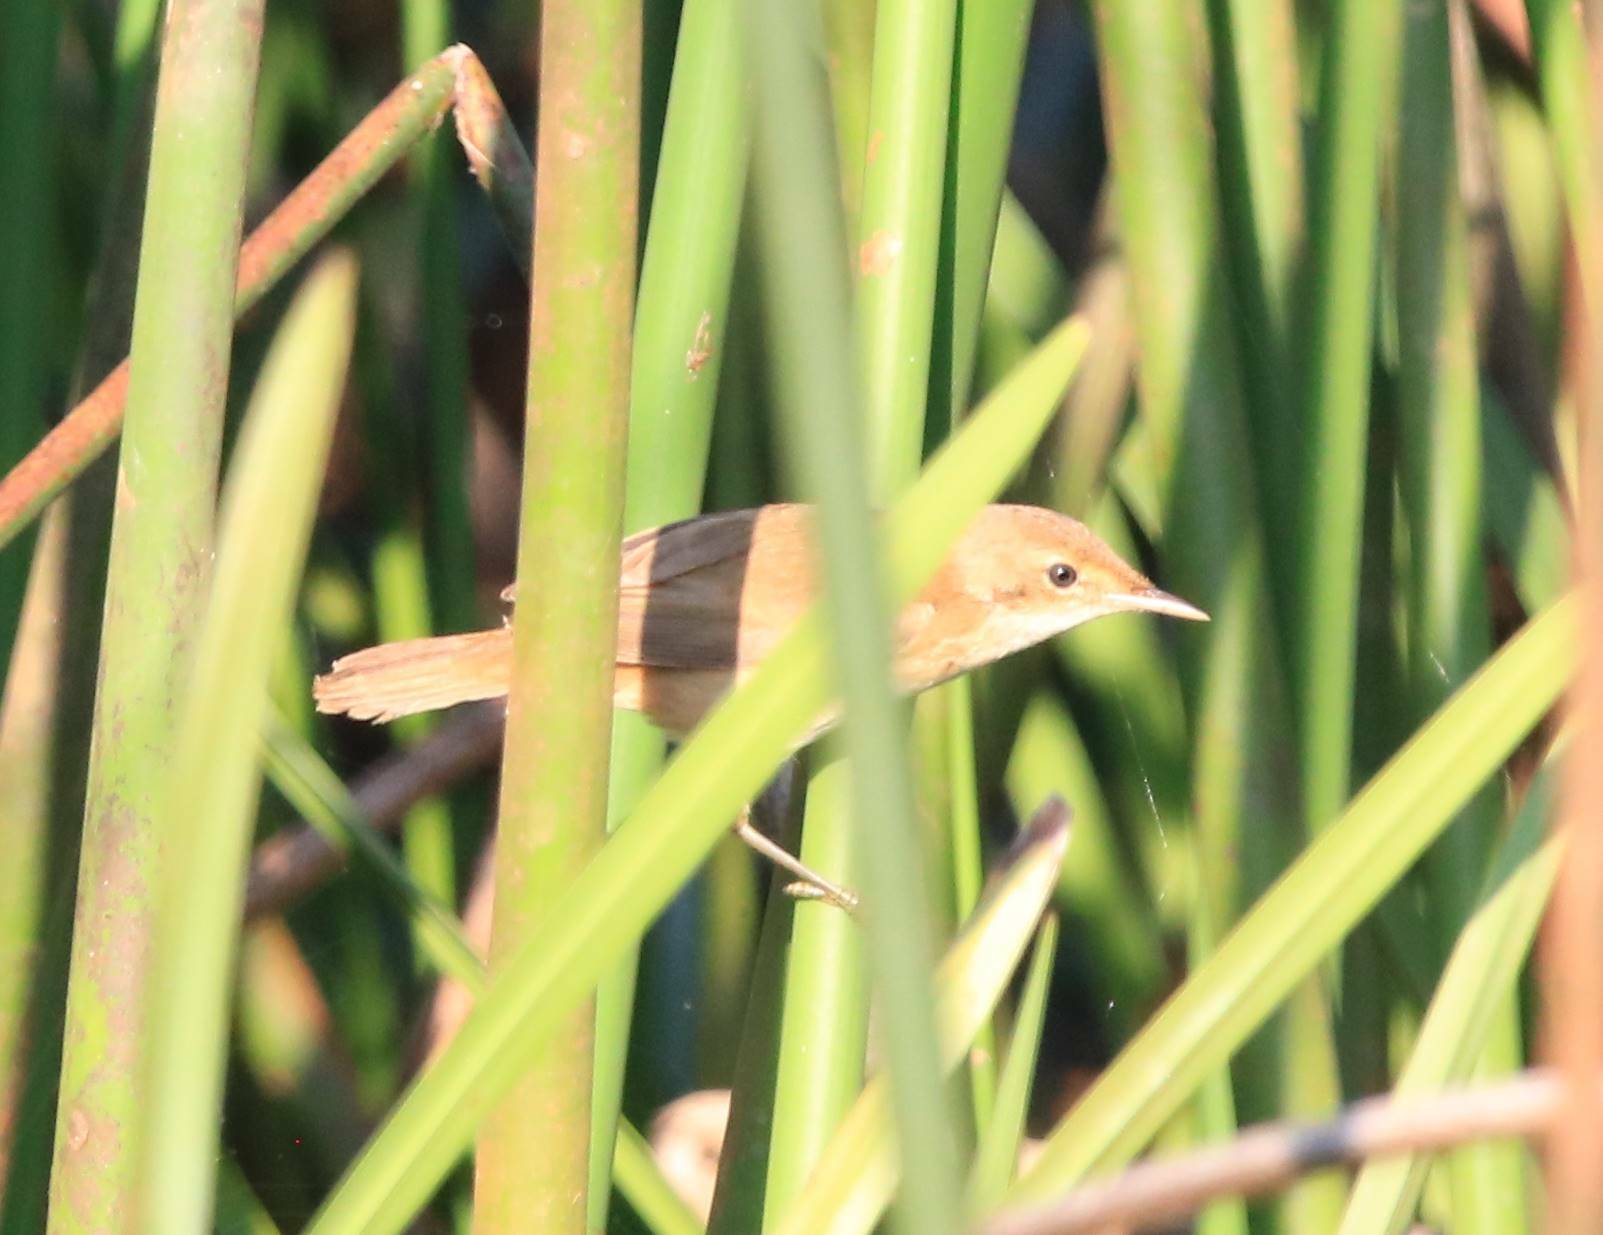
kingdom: Animalia
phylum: Chordata
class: Aves
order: Passeriformes
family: Acrocephalidae
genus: Acrocephalus
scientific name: Acrocephalus scirpaceus
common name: Eurasian reed warbler
